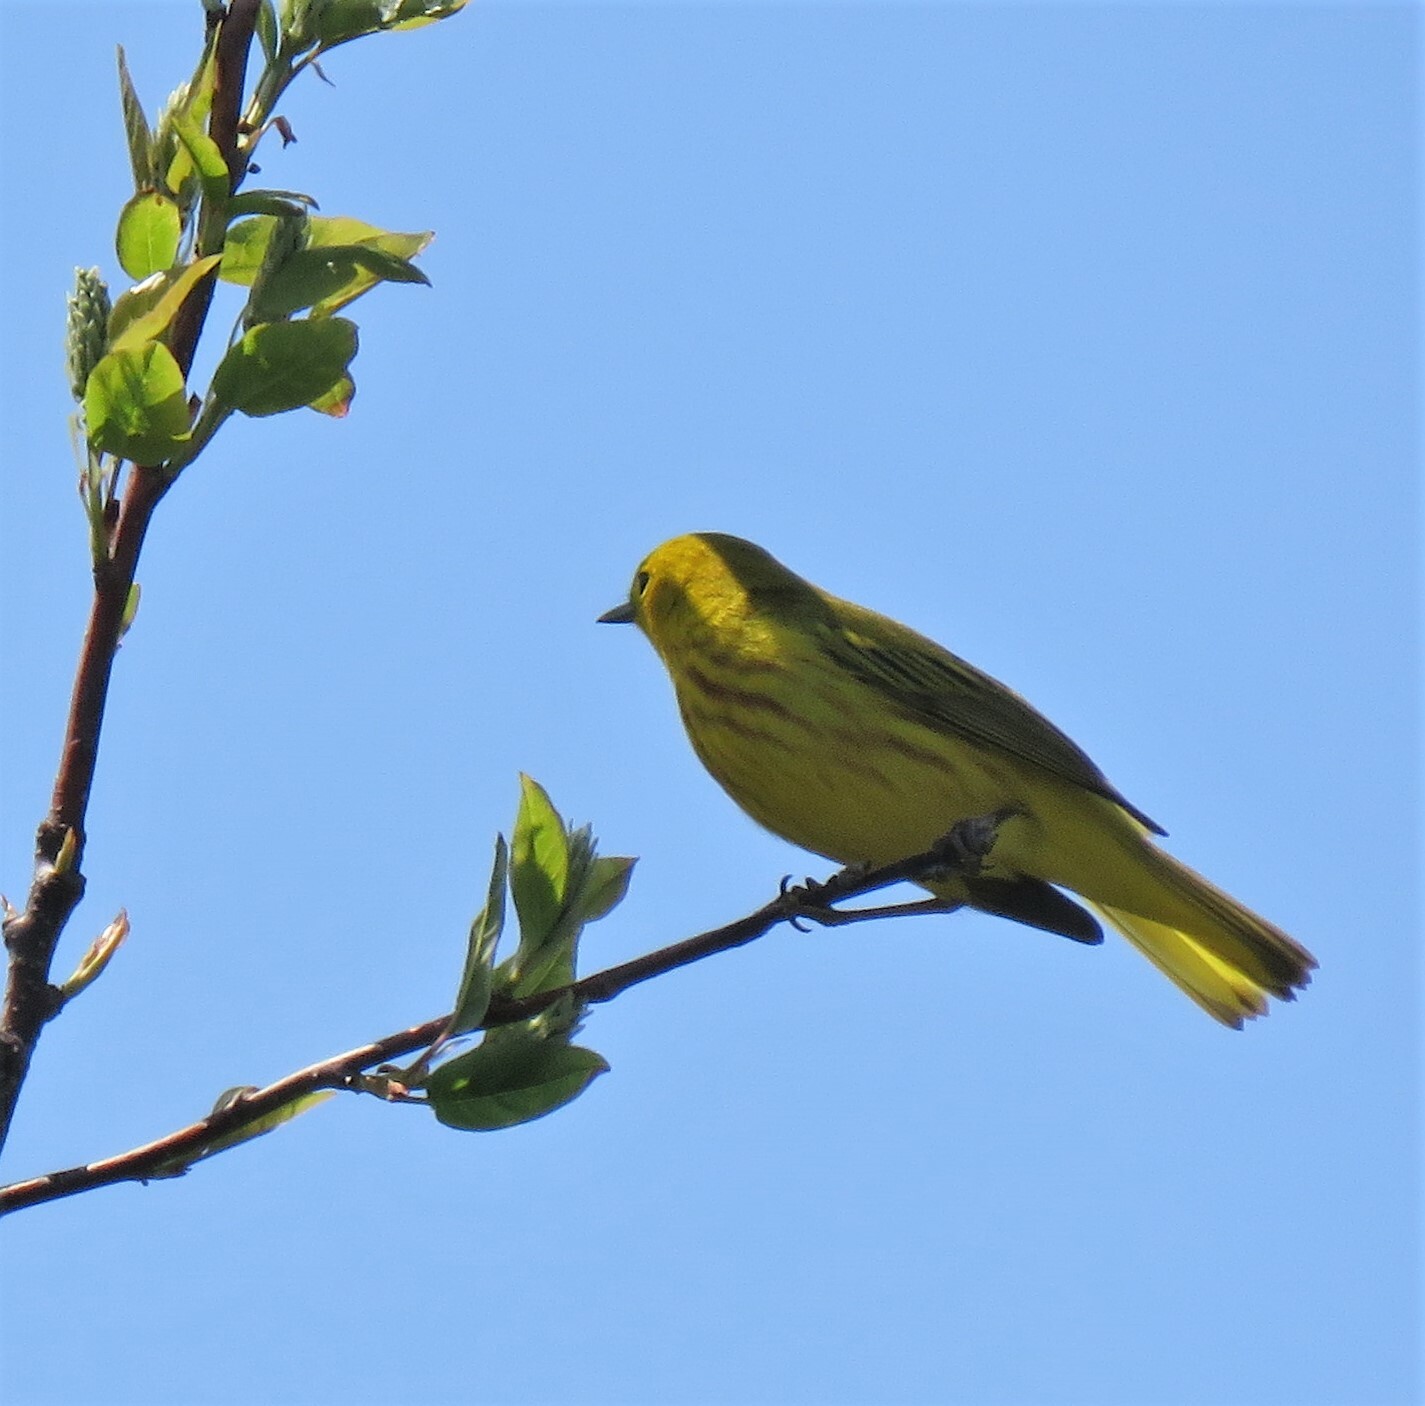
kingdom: Animalia
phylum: Chordata
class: Aves
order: Passeriformes
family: Parulidae
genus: Setophaga
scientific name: Setophaga petechia
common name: Yellow warbler
